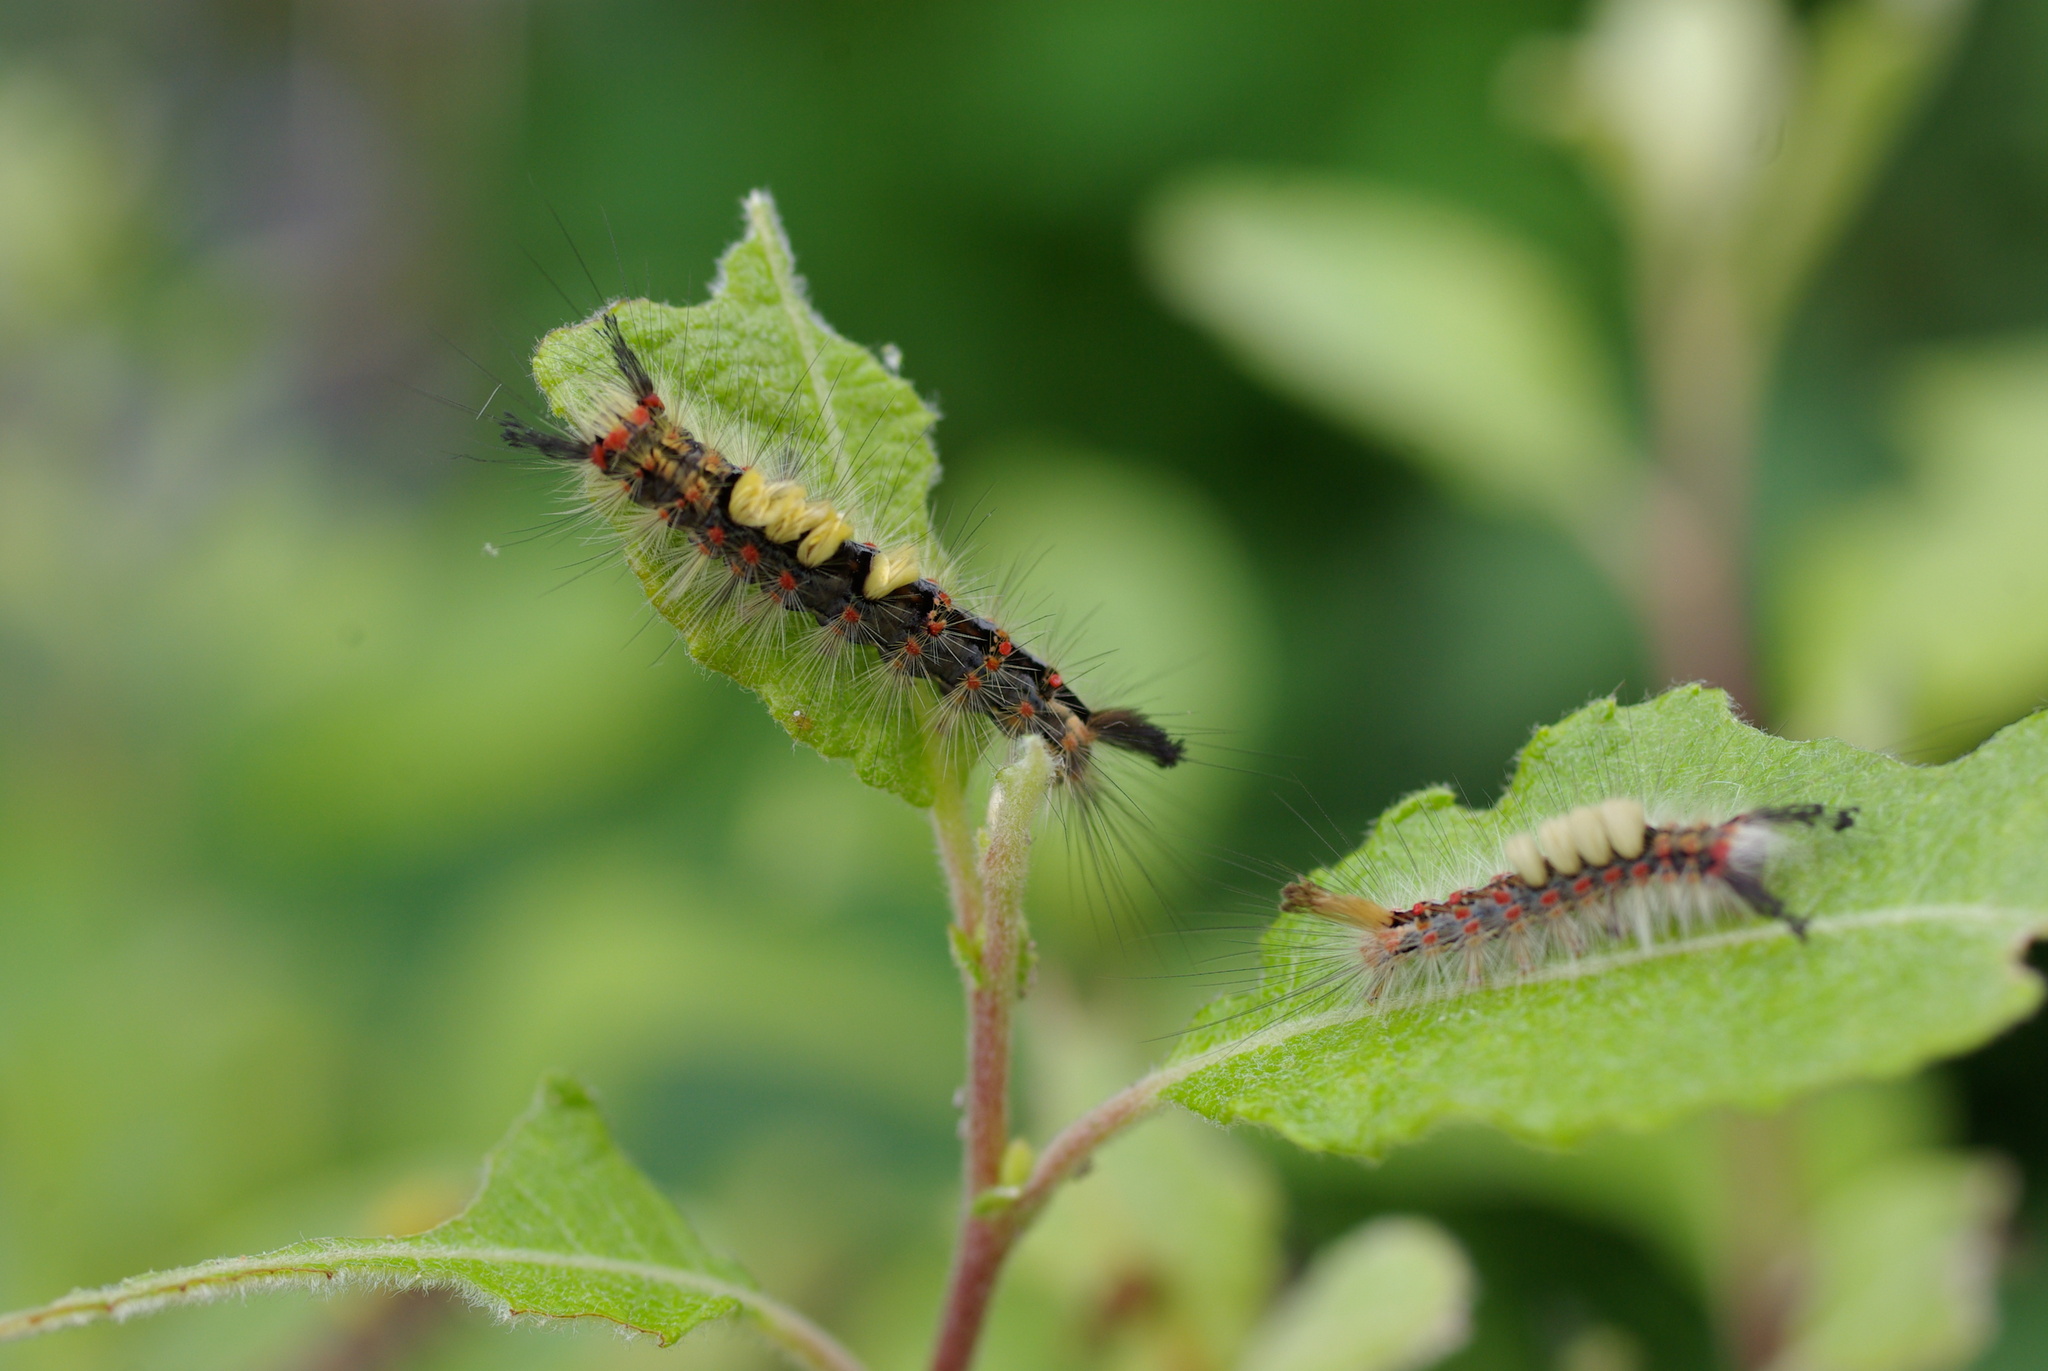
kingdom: Animalia
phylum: Arthropoda
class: Insecta
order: Lepidoptera
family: Erebidae
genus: Orgyia
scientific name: Orgyia antiqua
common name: Vapourer
